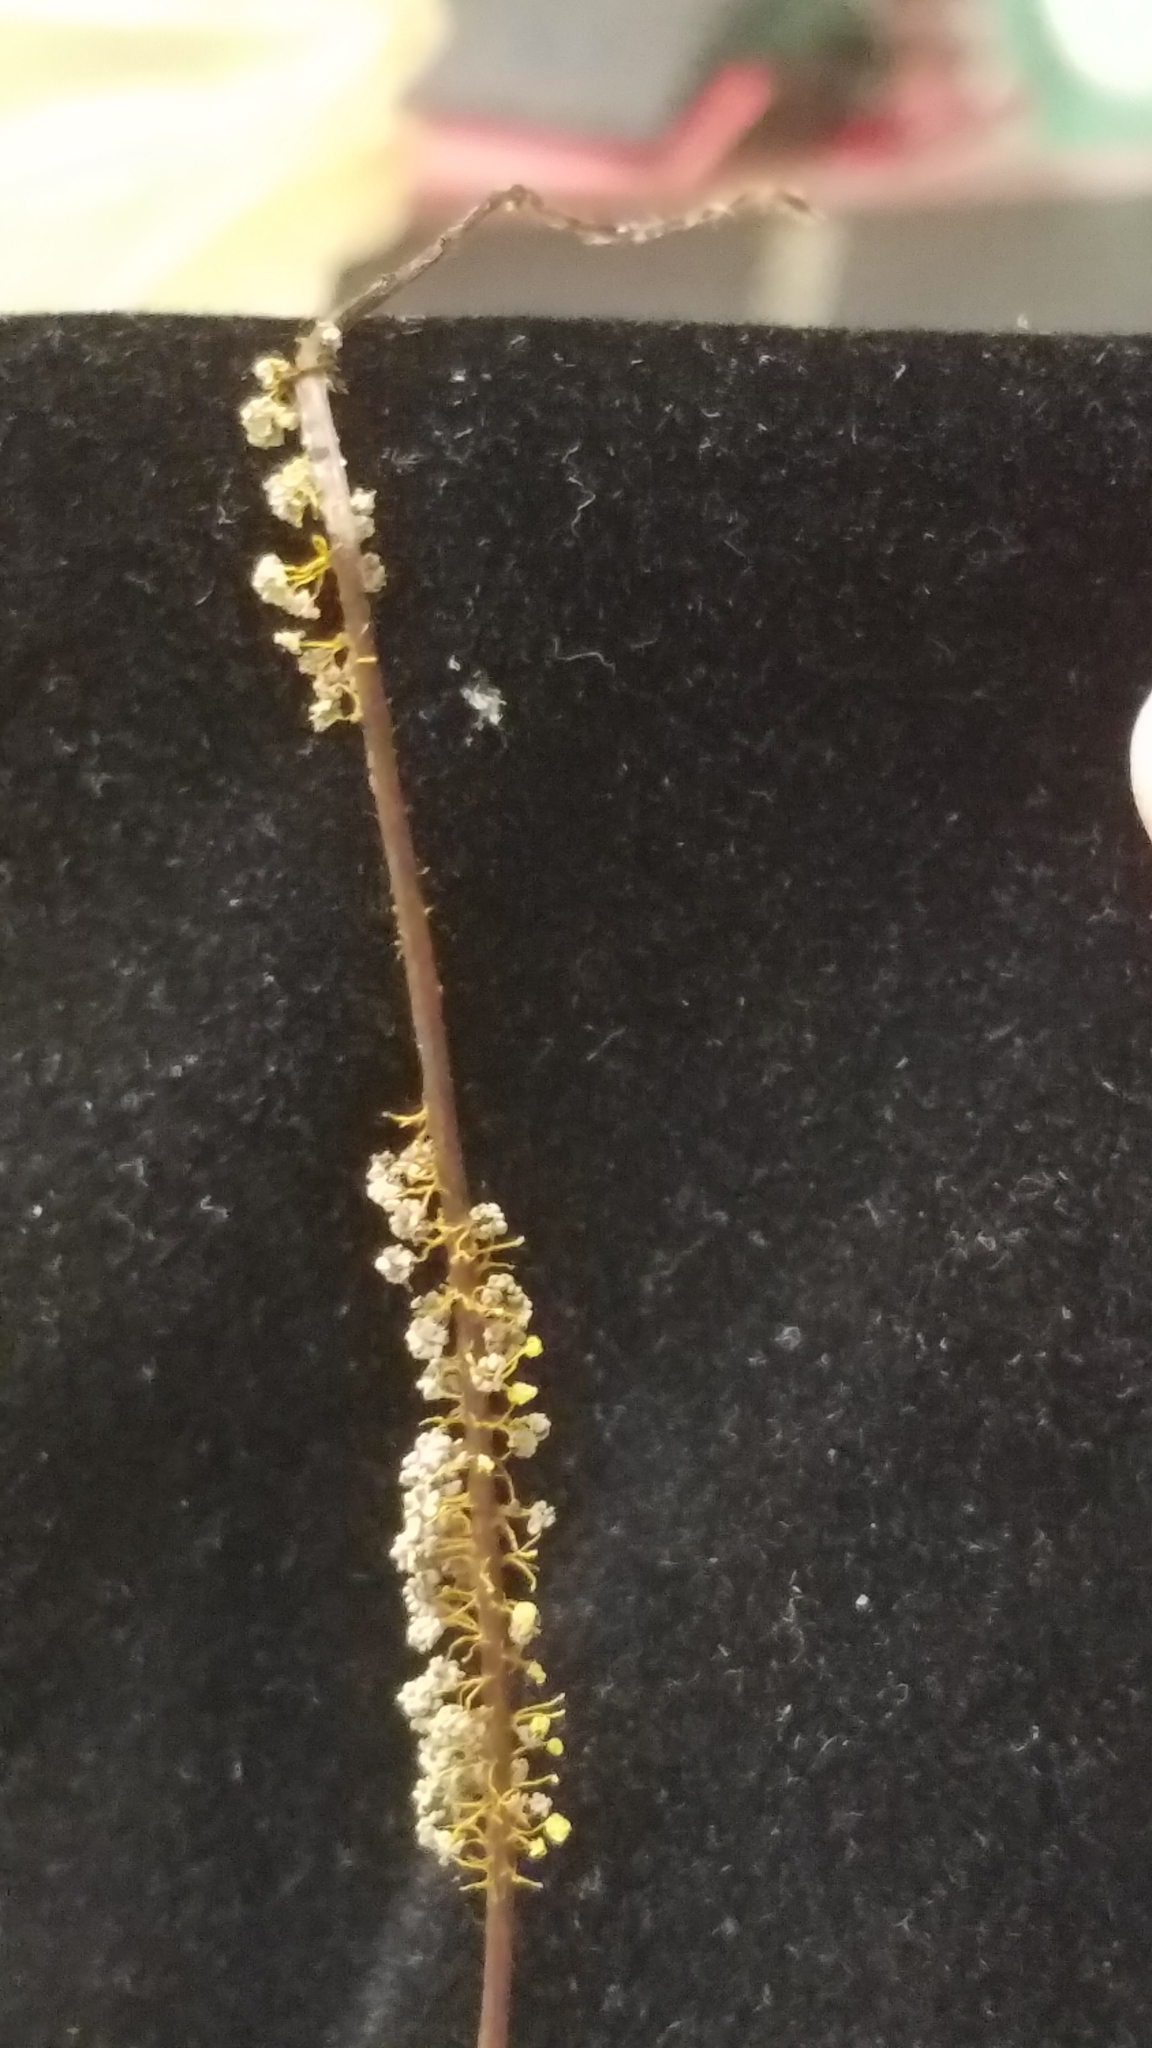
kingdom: Protozoa
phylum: Mycetozoa
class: Myxomycetes
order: Physarales
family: Physaraceae
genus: Physarum
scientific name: Physarum polycephalum
